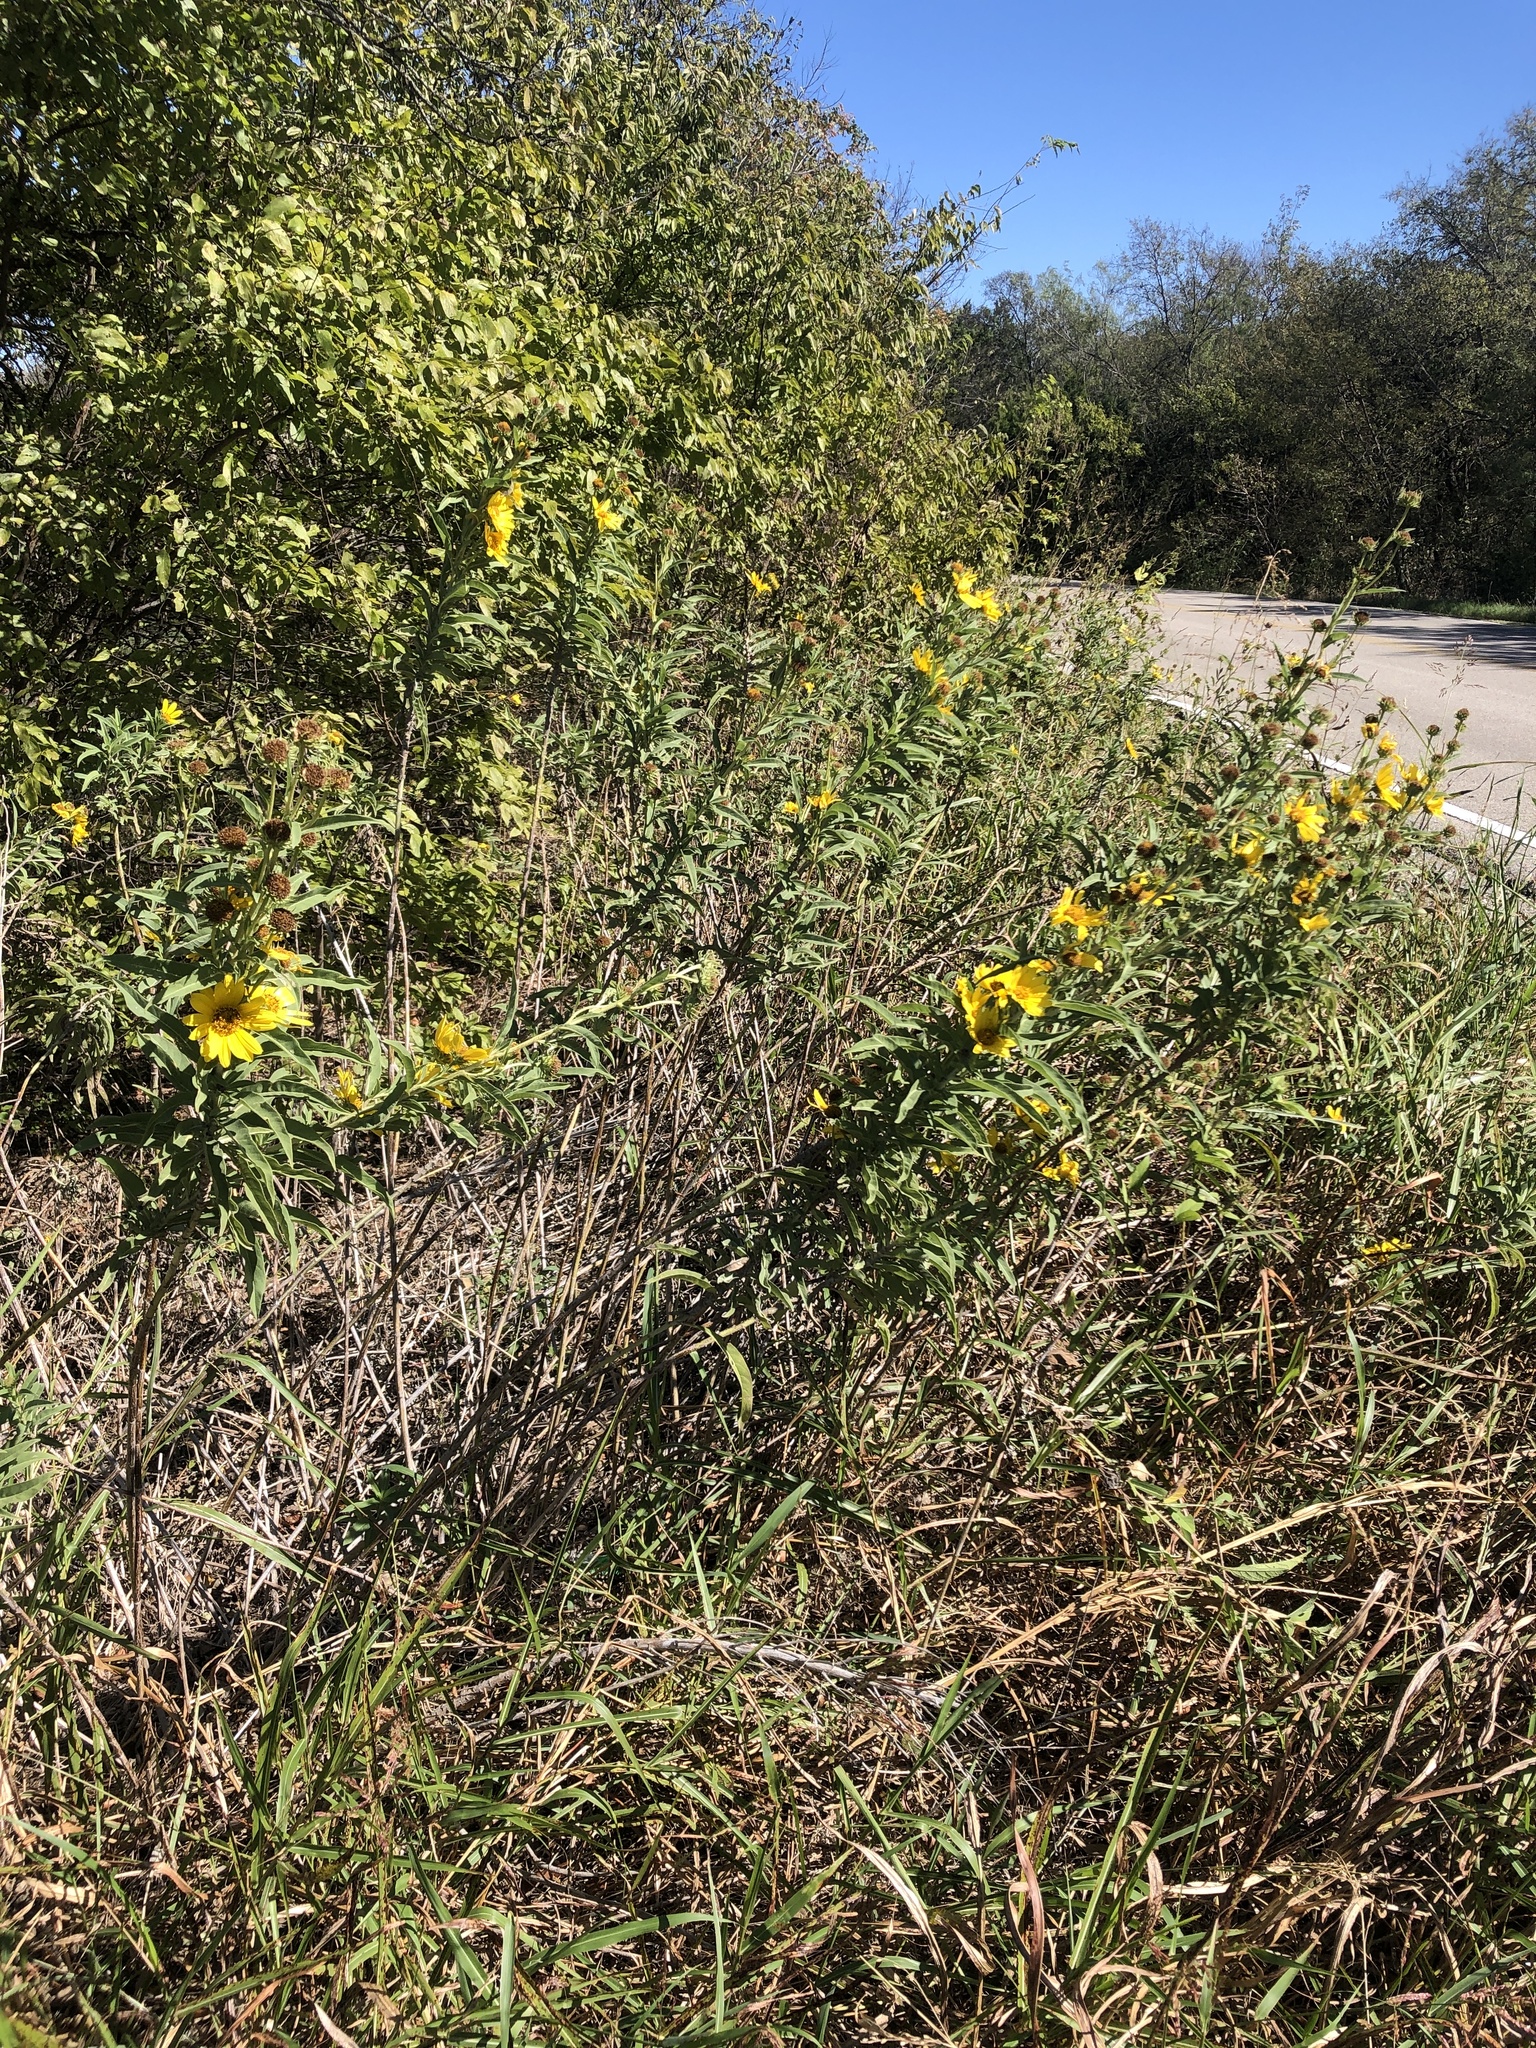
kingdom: Plantae
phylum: Tracheophyta
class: Magnoliopsida
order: Asterales
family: Asteraceae
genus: Helianthus
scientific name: Helianthus maximiliani
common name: Maximilian's sunflower
